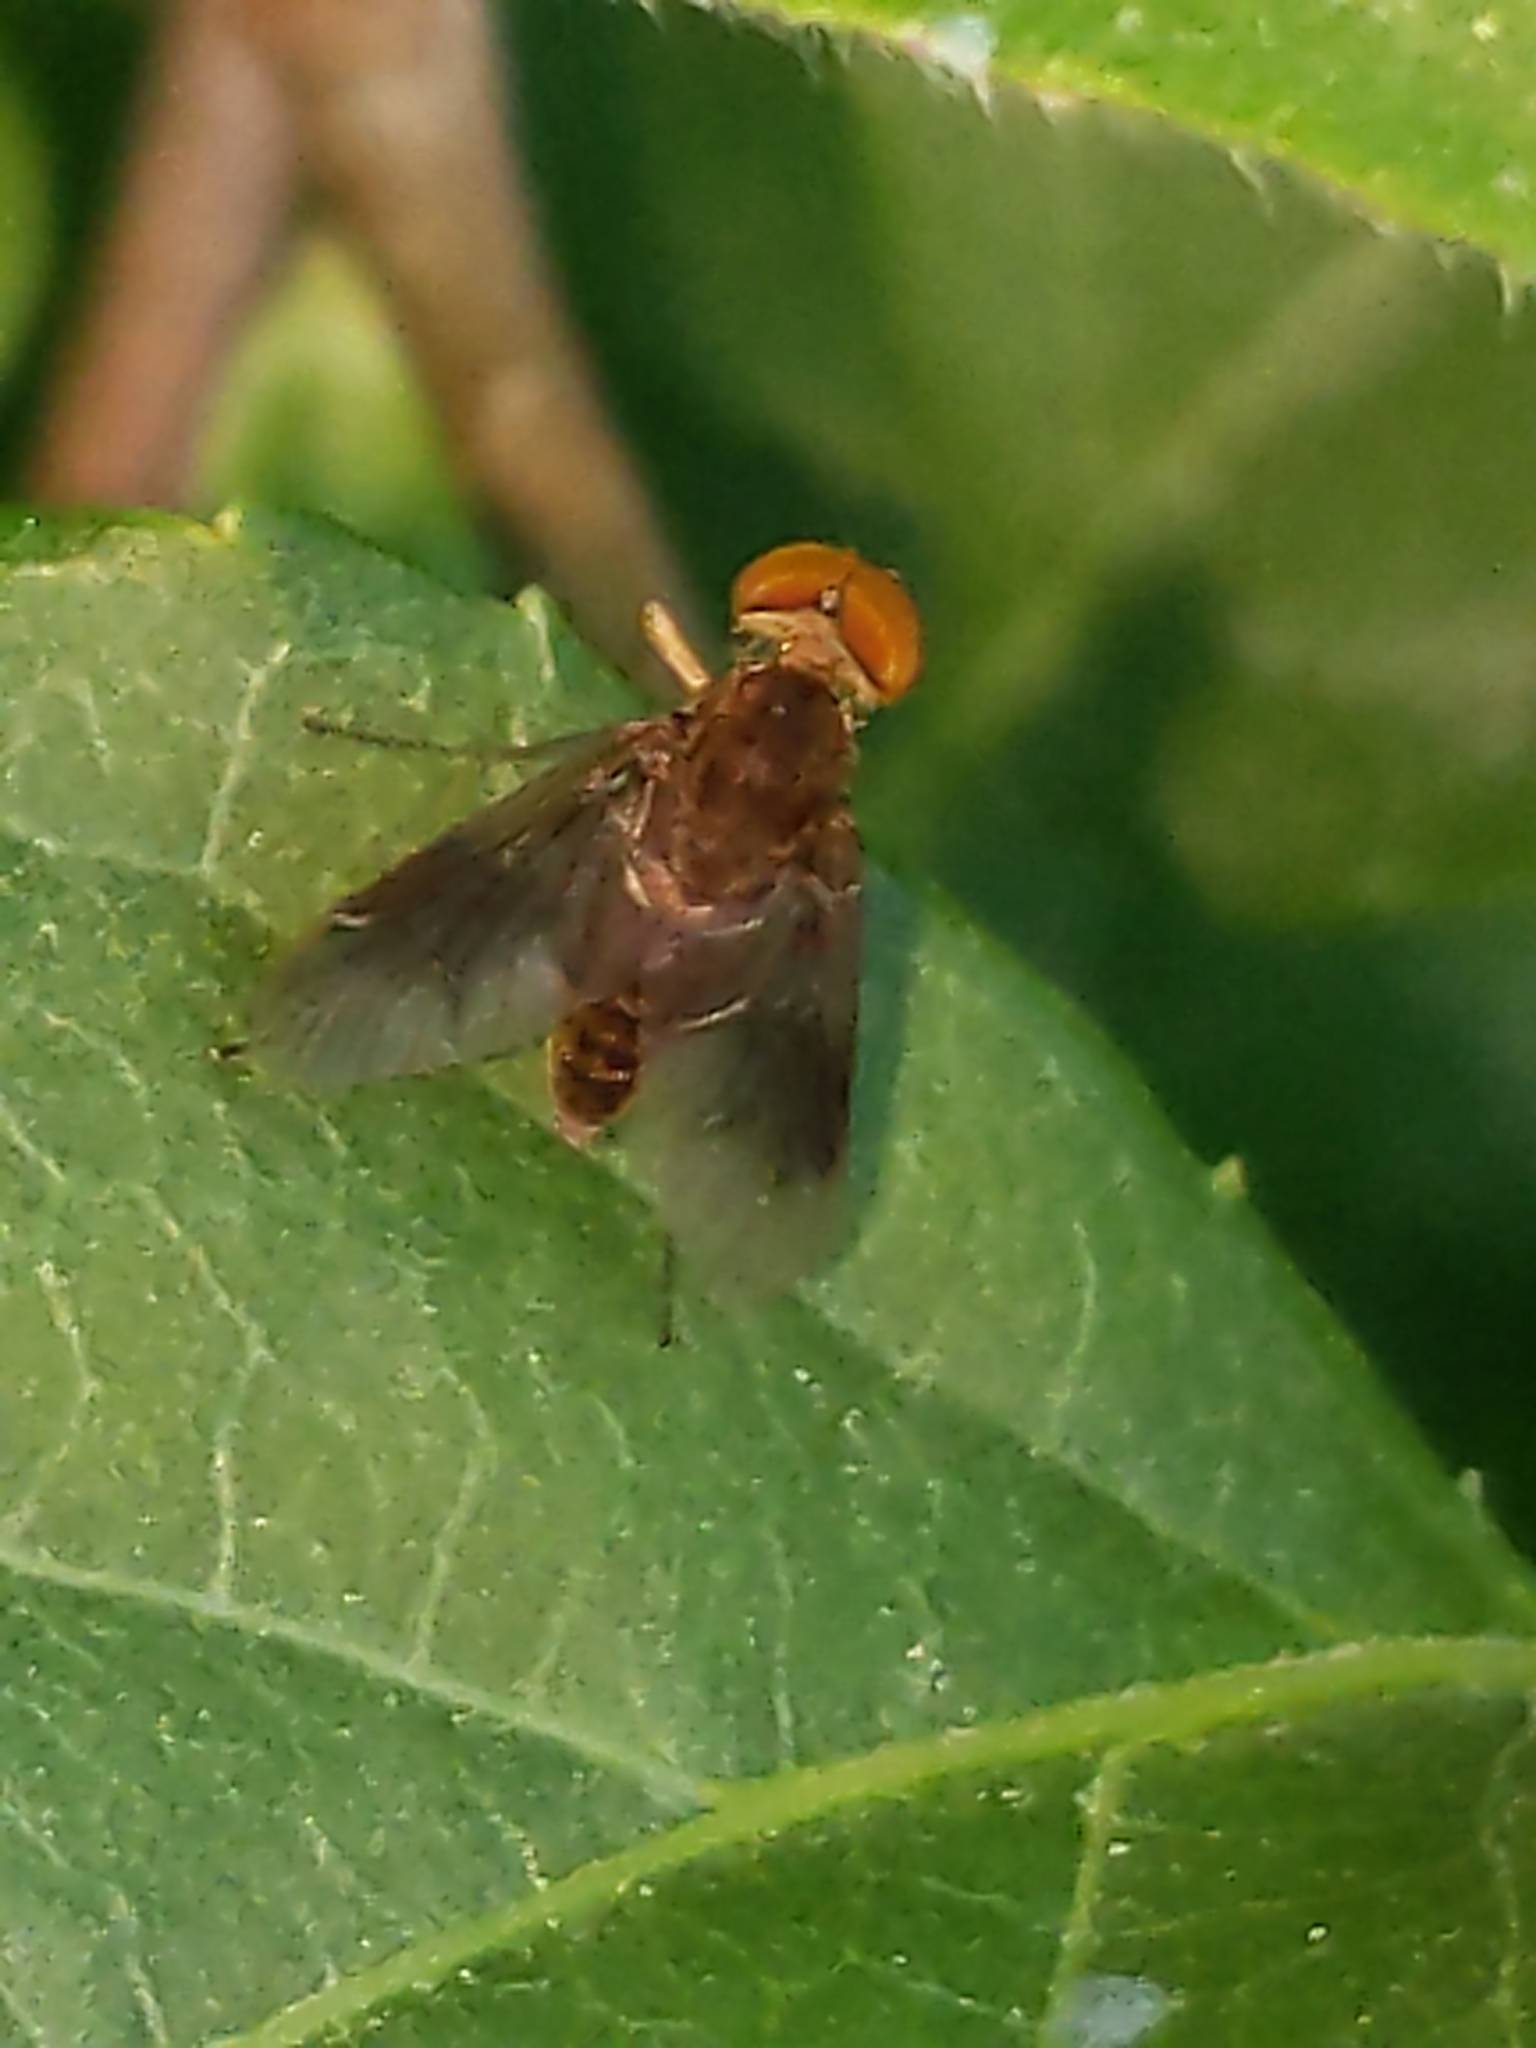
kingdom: Animalia
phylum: Arthropoda
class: Insecta
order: Diptera
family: Rhagionidae
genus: Chrysopilus
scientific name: Chrysopilus quadratus
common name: Quadrate snipe fly
